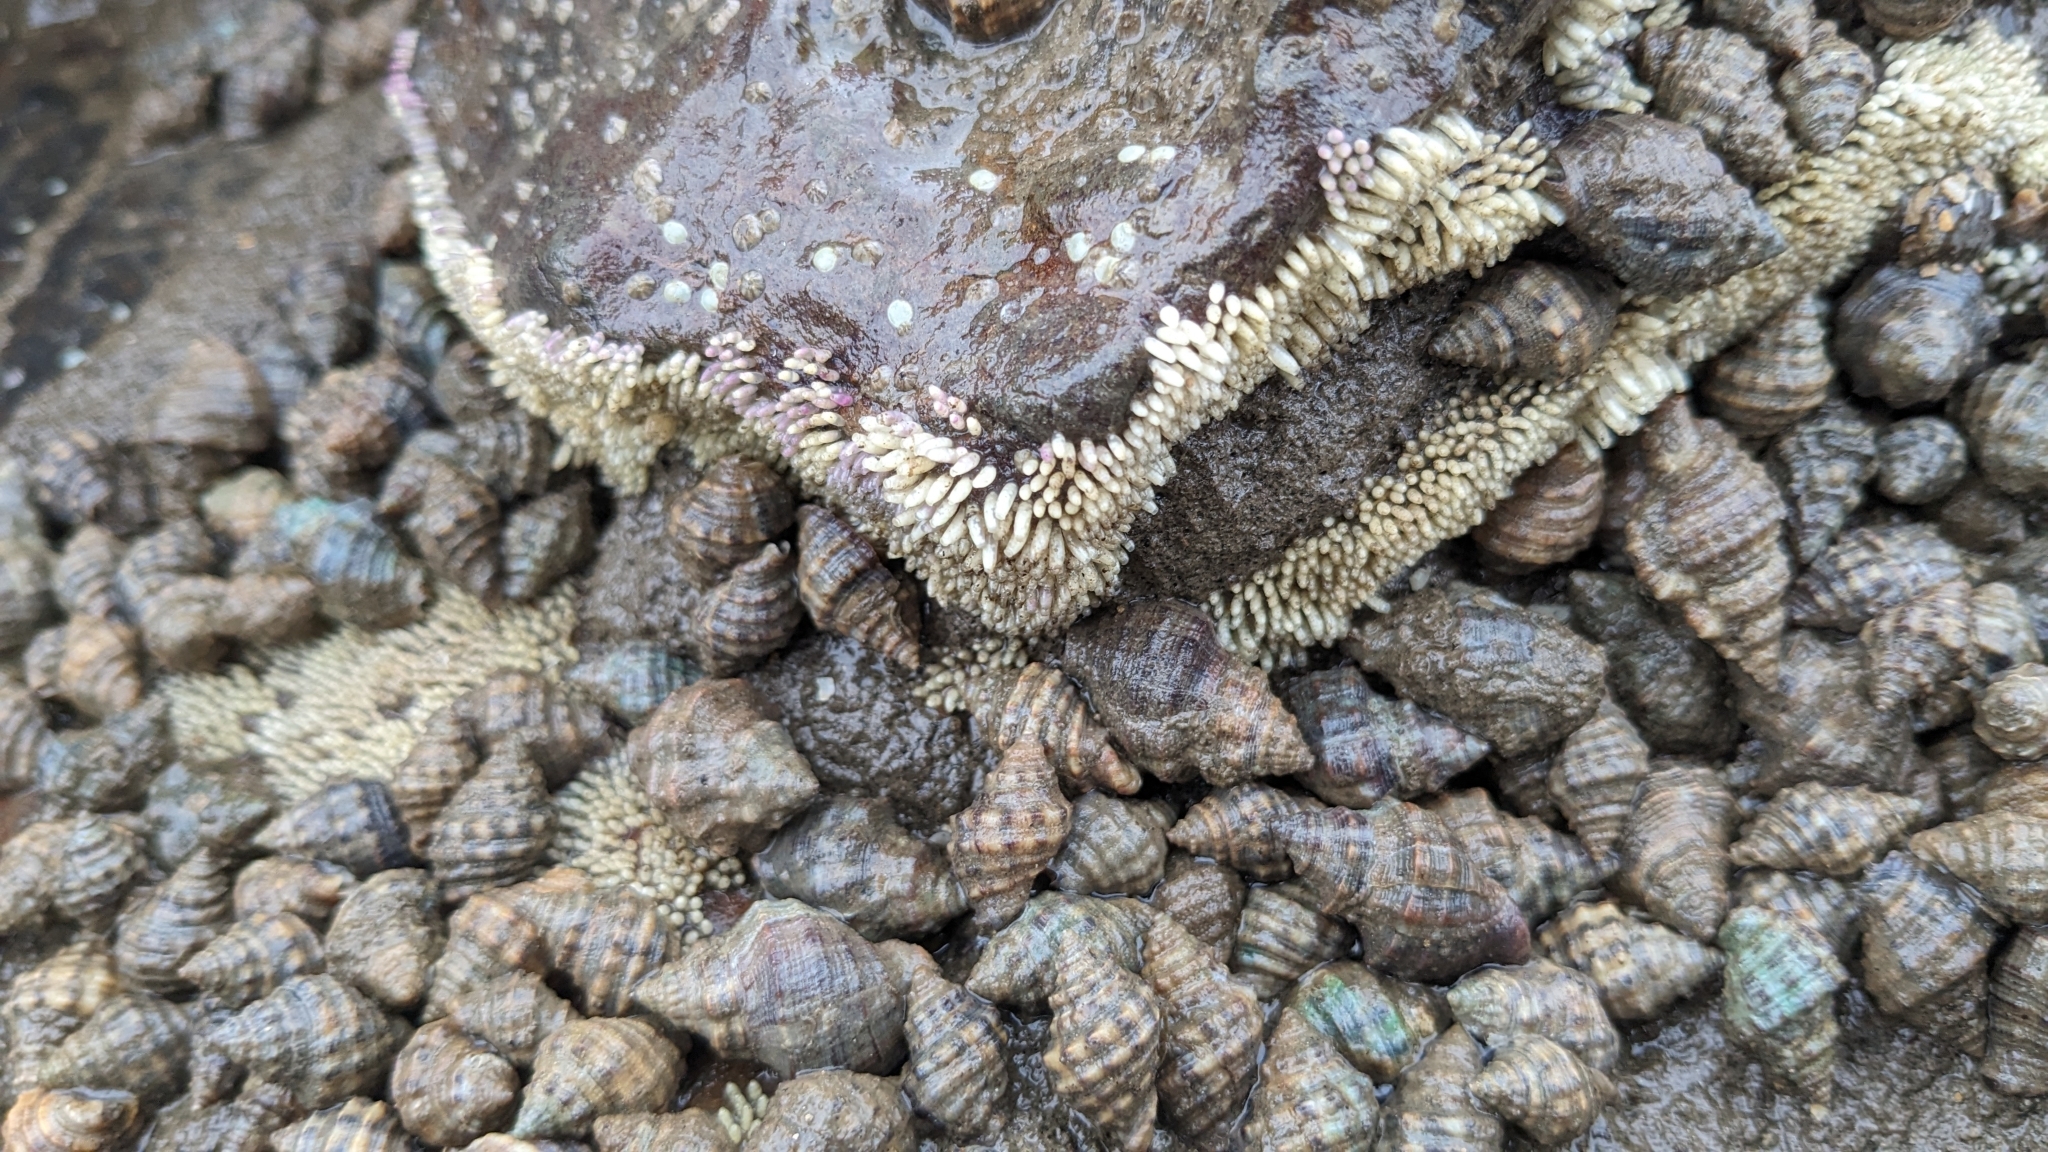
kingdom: Animalia
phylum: Mollusca
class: Gastropoda
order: Neogastropoda
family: Muricidae
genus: Indothais
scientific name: Indothais blanfordi
